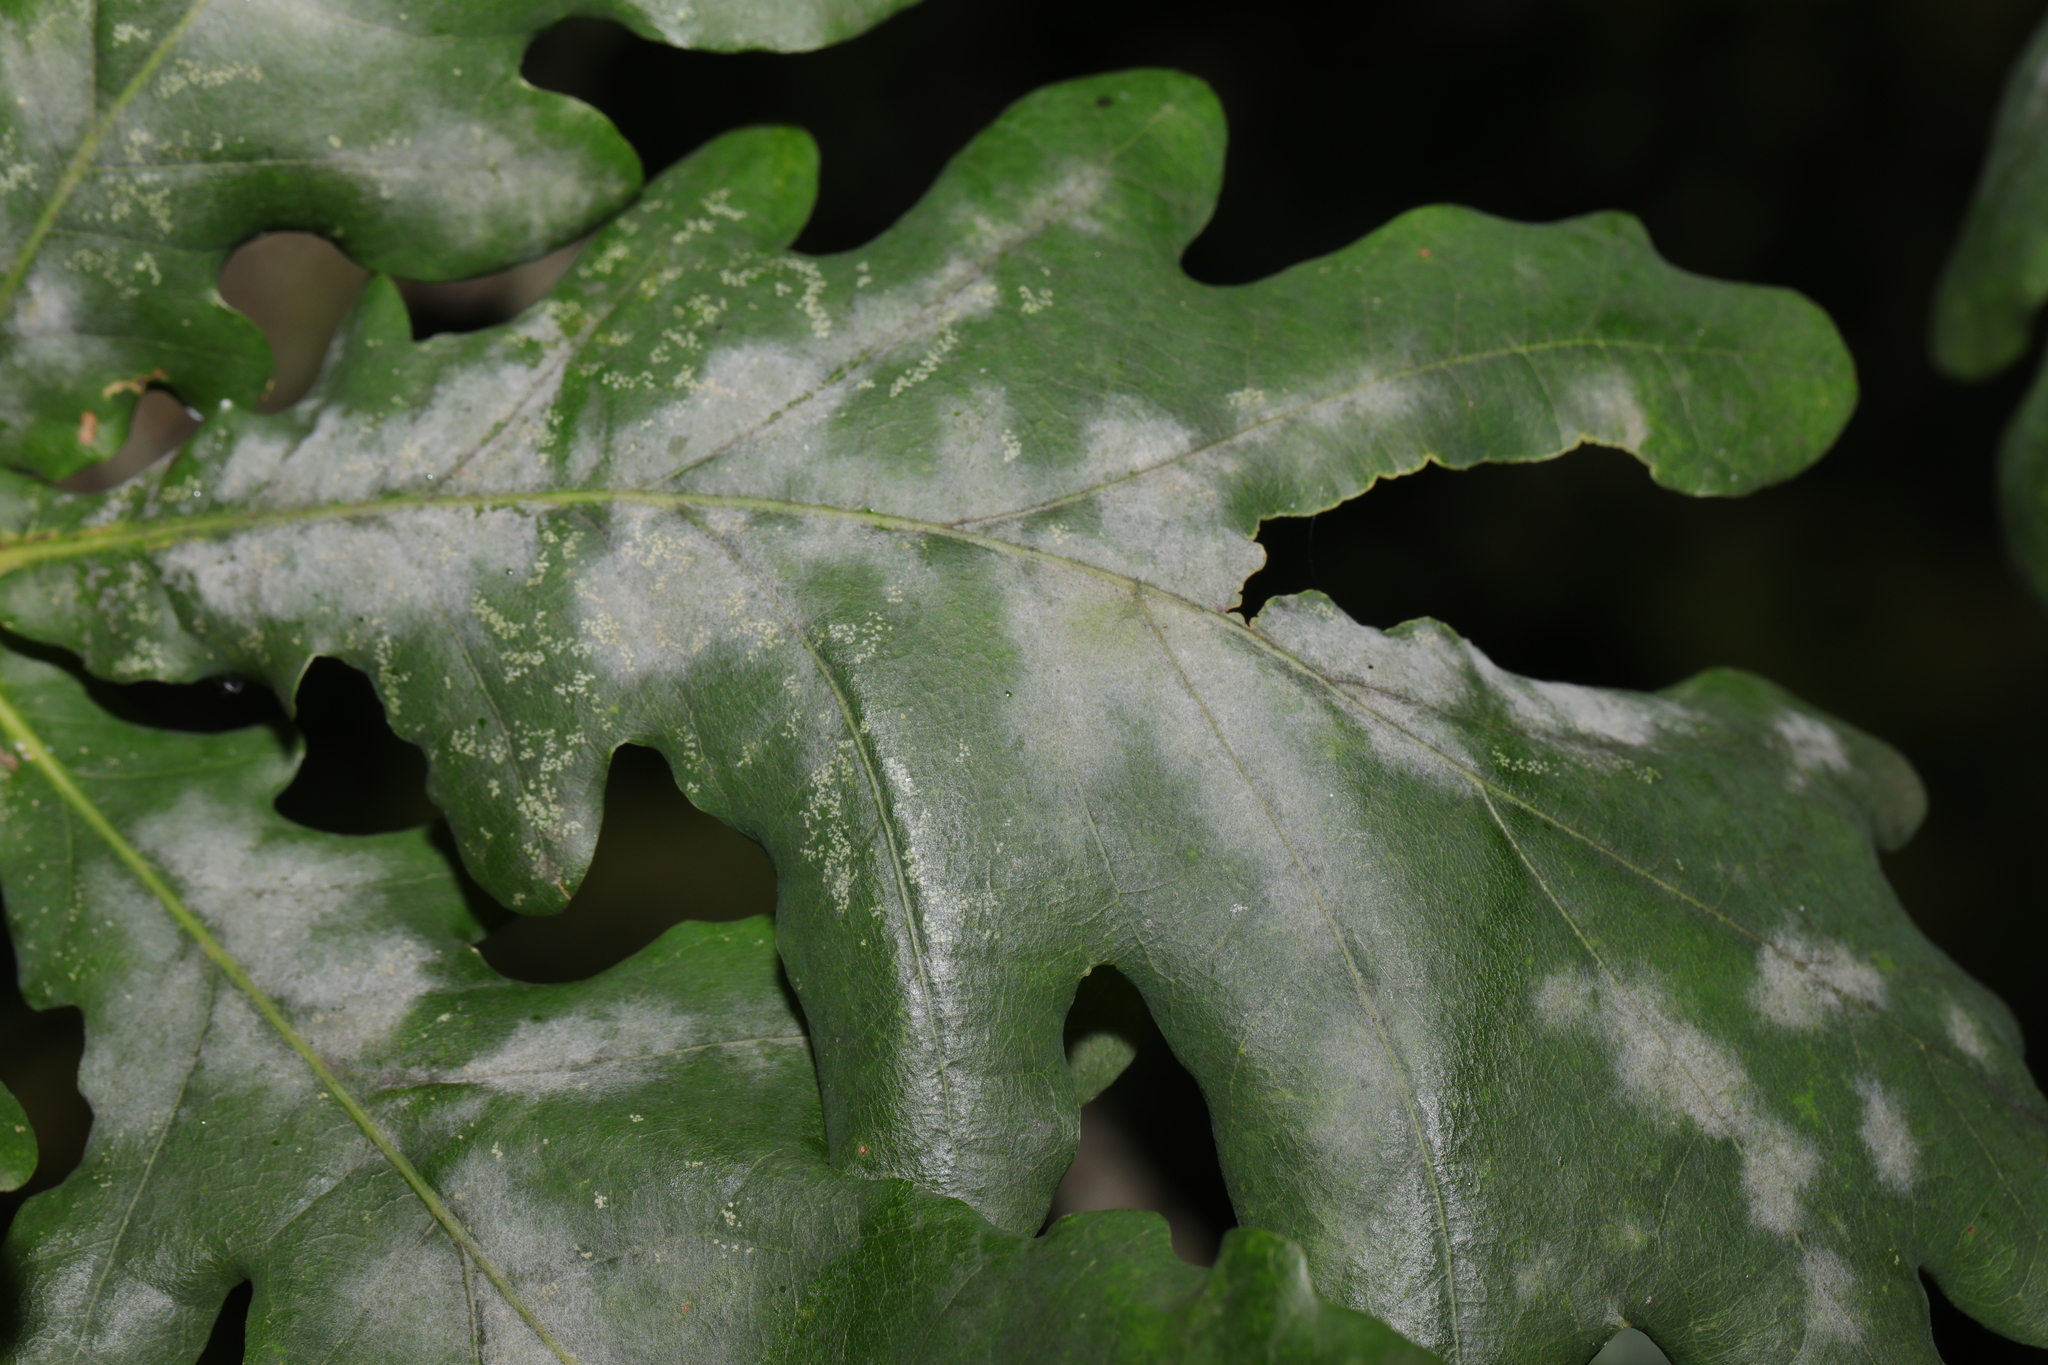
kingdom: Fungi
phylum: Ascomycota
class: Leotiomycetes
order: Helotiales
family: Erysiphaceae
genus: Erysiphe
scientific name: Erysiphe alphitoides
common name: Oak mildew
